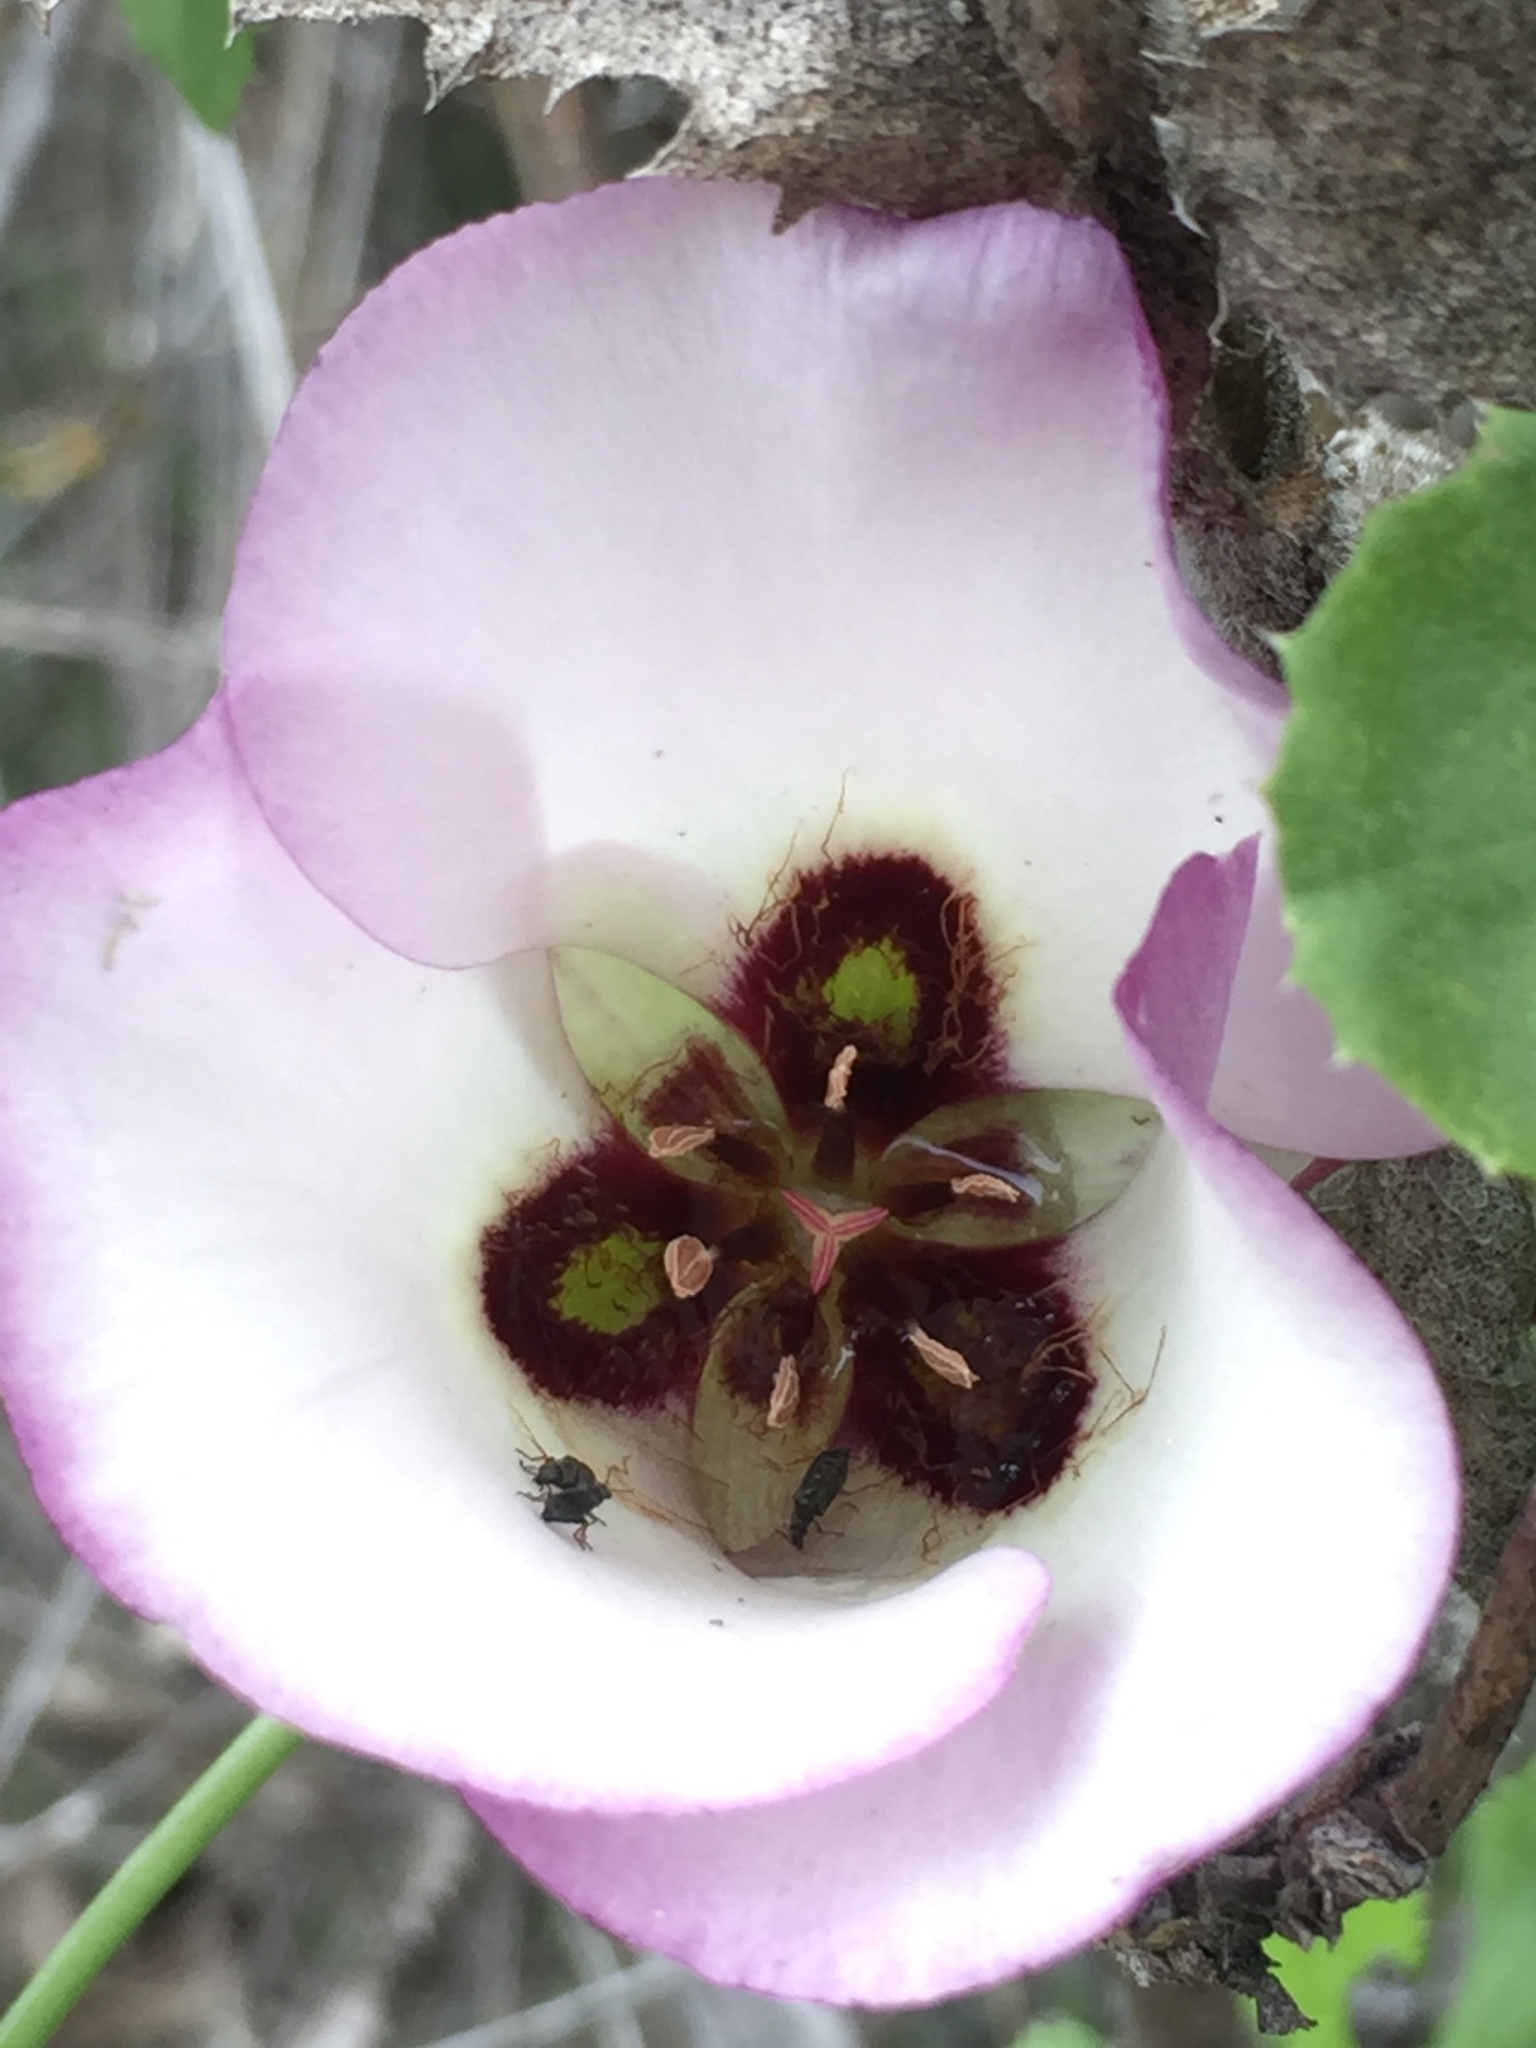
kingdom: Plantae
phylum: Tracheophyta
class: Liliopsida
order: Liliales
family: Liliaceae
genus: Calochortus
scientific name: Calochortus catalinae
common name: Catalina mariposa-lily
